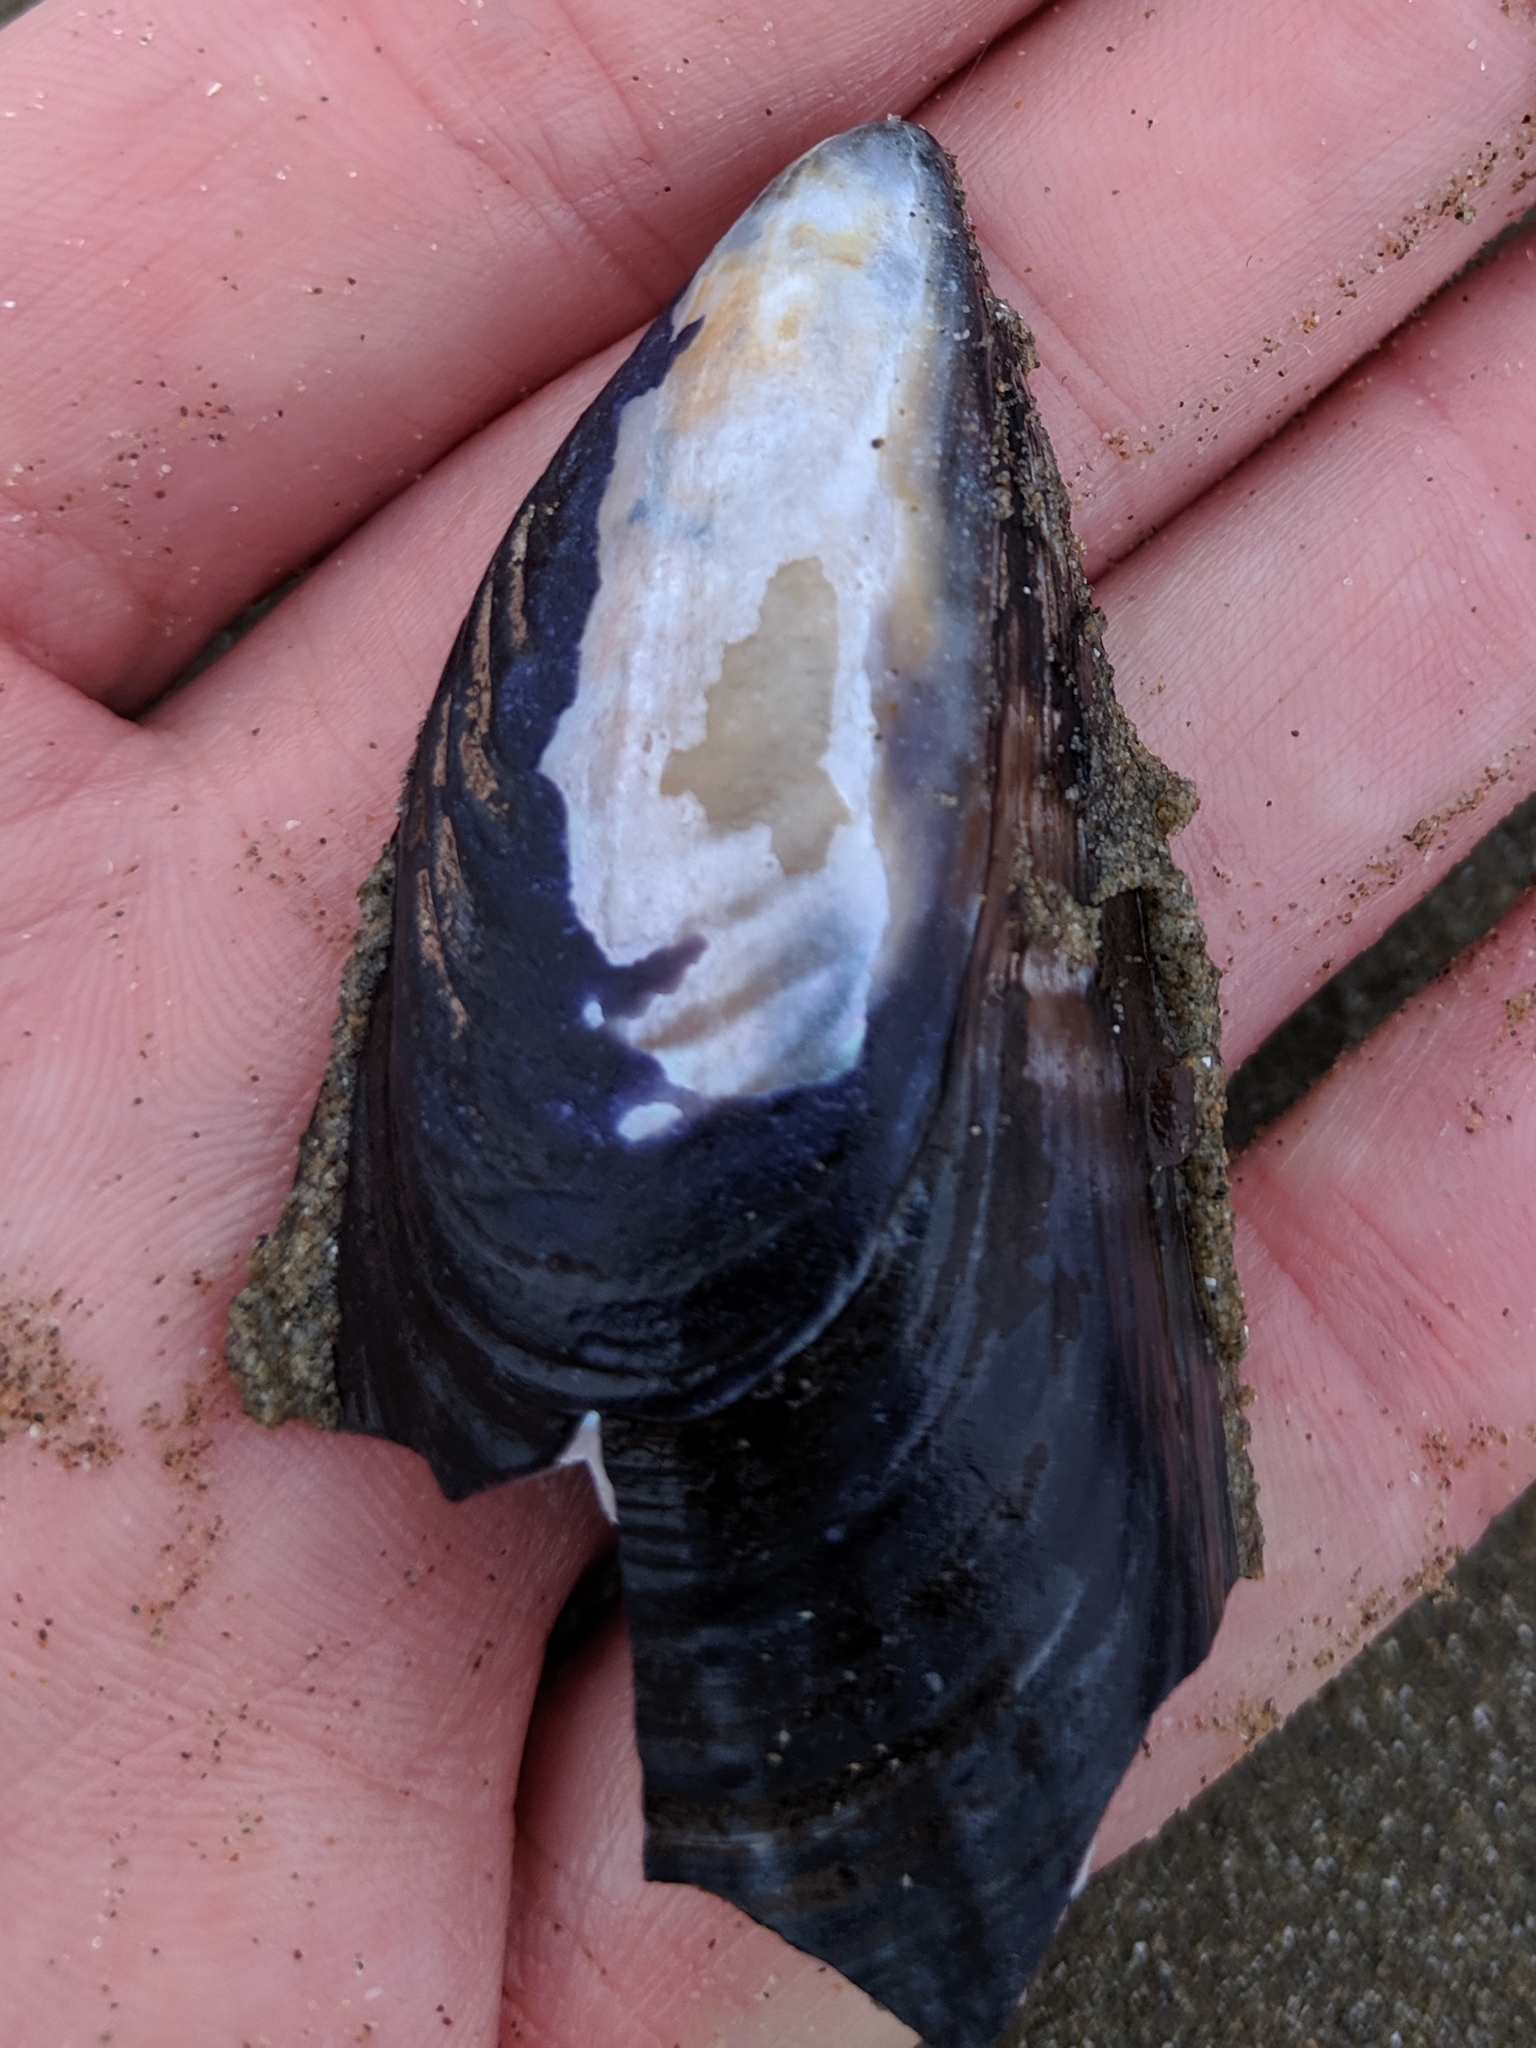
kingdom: Animalia
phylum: Mollusca
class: Bivalvia
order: Mytilida
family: Mytilidae
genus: Mytilus
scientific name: Mytilus californianus
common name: California mussel
